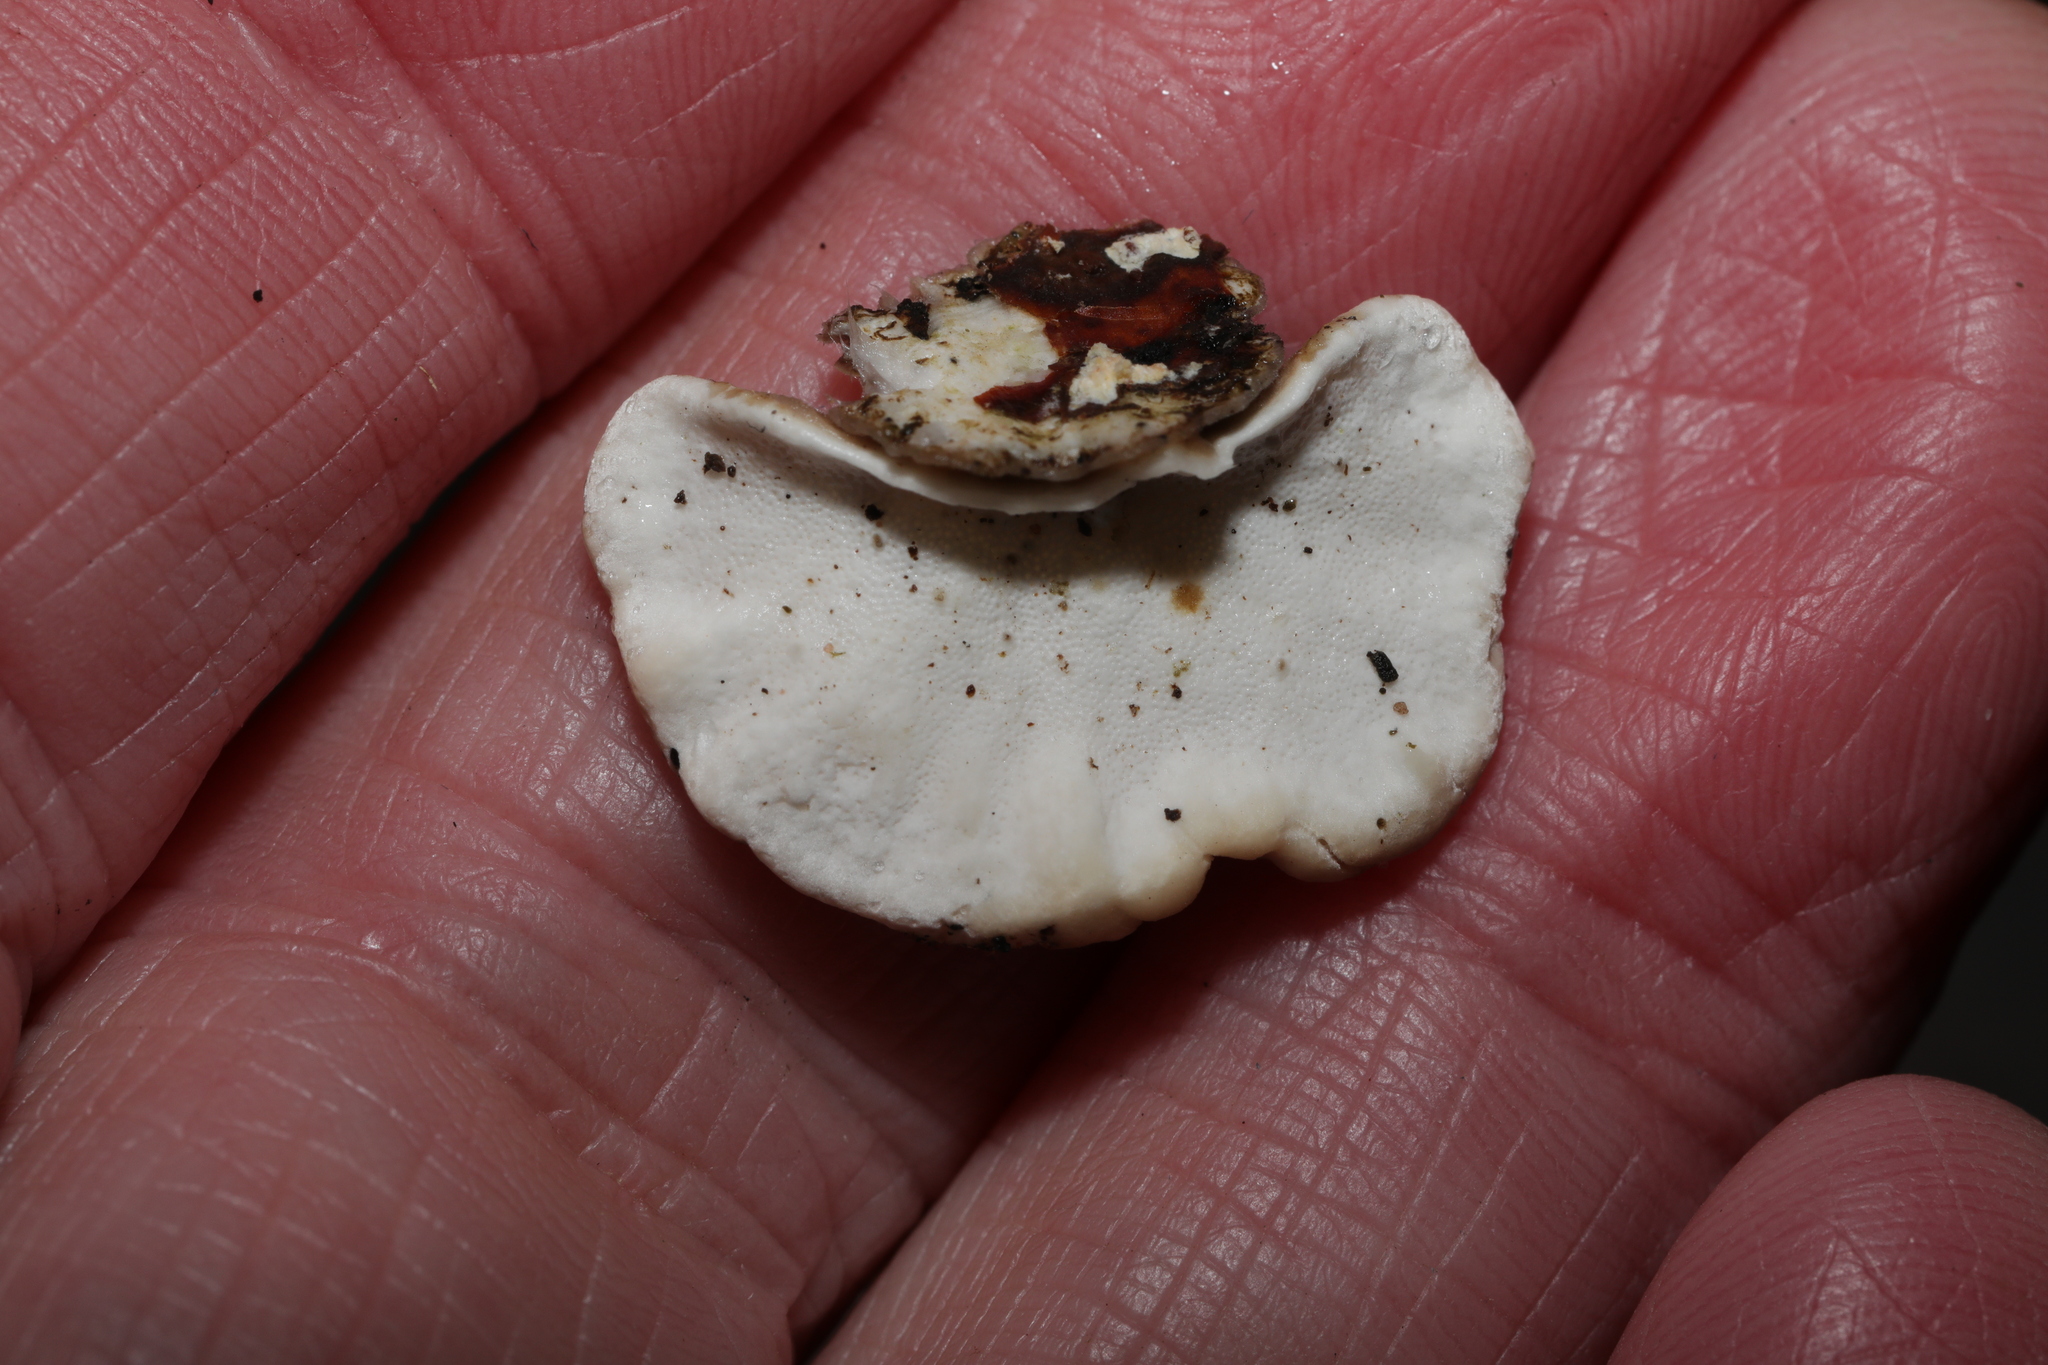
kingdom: Fungi
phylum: Basidiomycota
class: Agaricomycetes
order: Polyporales
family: Polyporaceae
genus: Trametes
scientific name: Trametes versicolor
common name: Turkeytail
